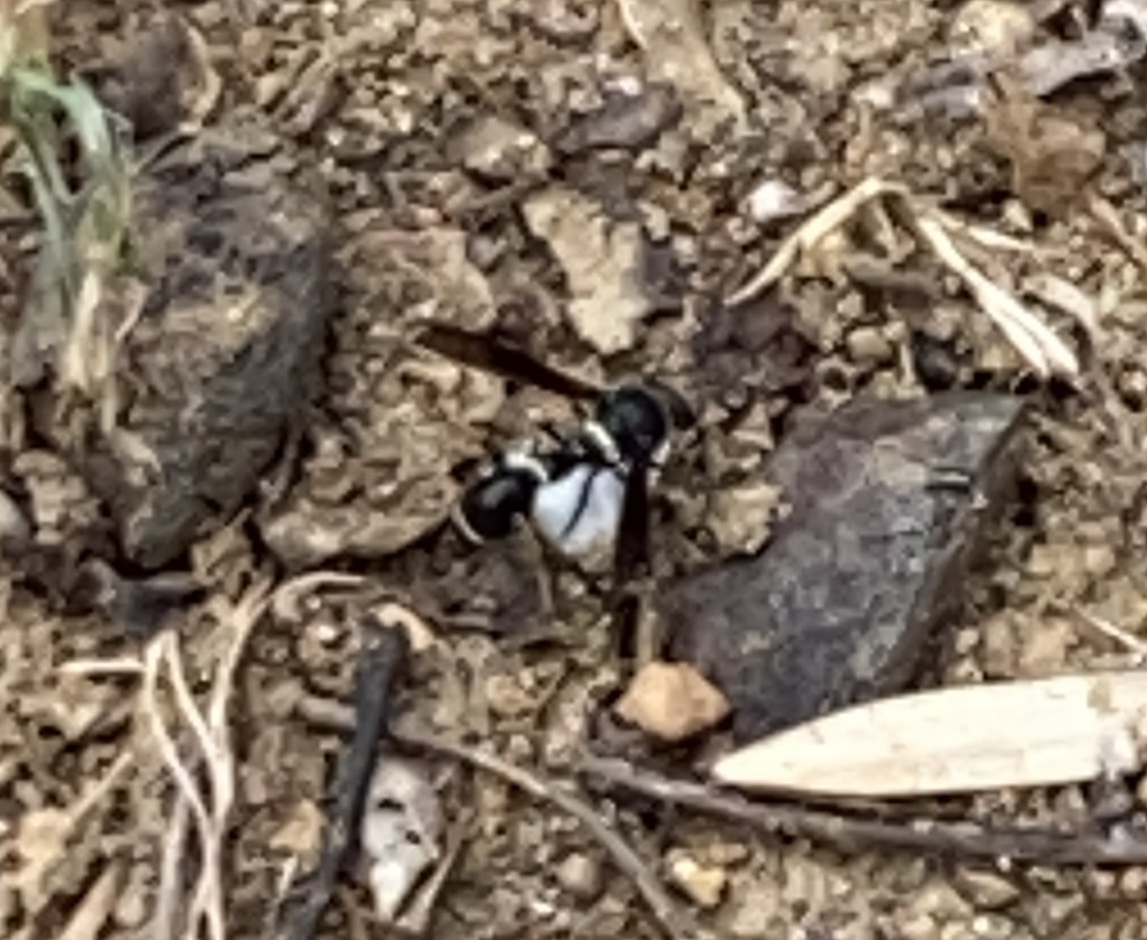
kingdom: Animalia
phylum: Arthropoda
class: Insecta
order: Hymenoptera
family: Vespidae
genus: Eumenes
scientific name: Eumenes fraternus
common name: Fraternal potter wasp
